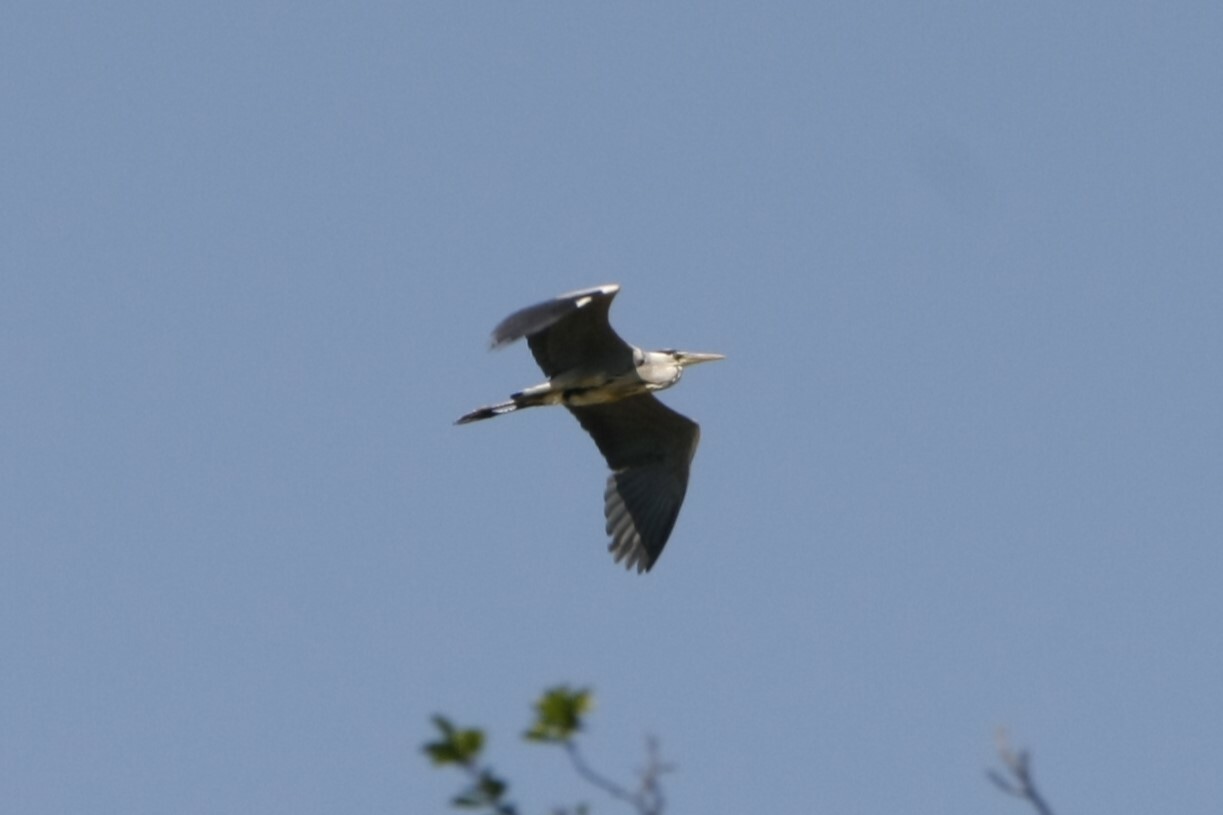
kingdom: Animalia
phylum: Chordata
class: Aves
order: Pelecaniformes
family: Ardeidae
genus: Ardea
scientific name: Ardea cinerea
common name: Grey heron
